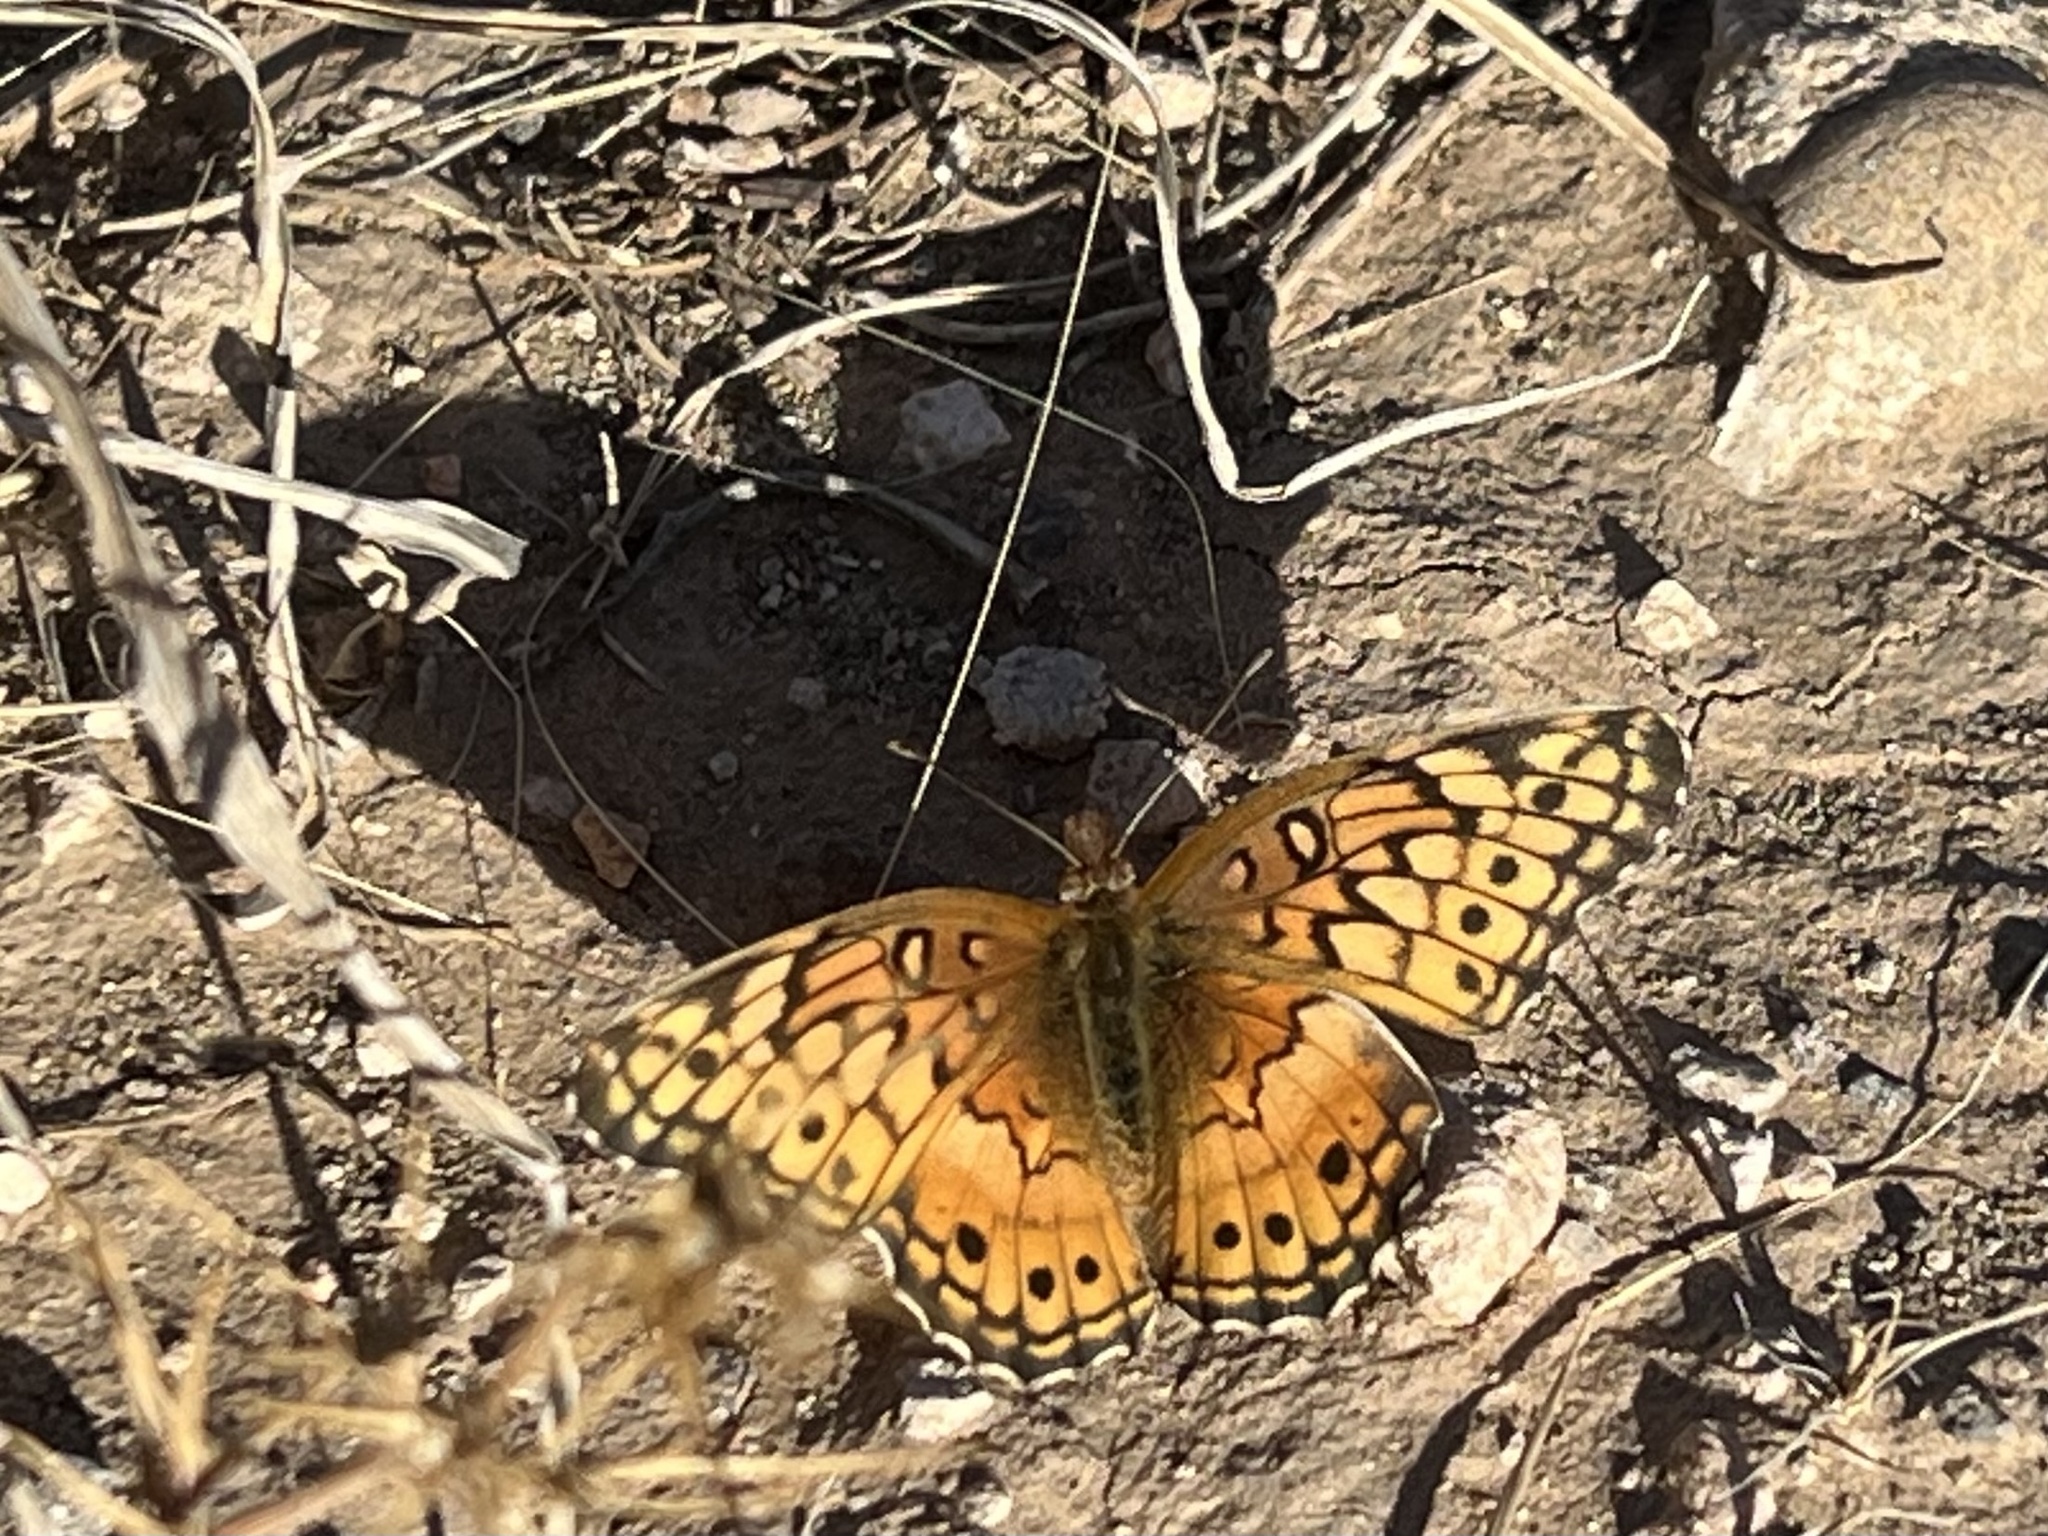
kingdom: Animalia
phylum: Arthropoda
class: Insecta
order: Lepidoptera
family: Nymphalidae
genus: Euptoieta
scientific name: Euptoieta claudia
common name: Variegated fritillary
